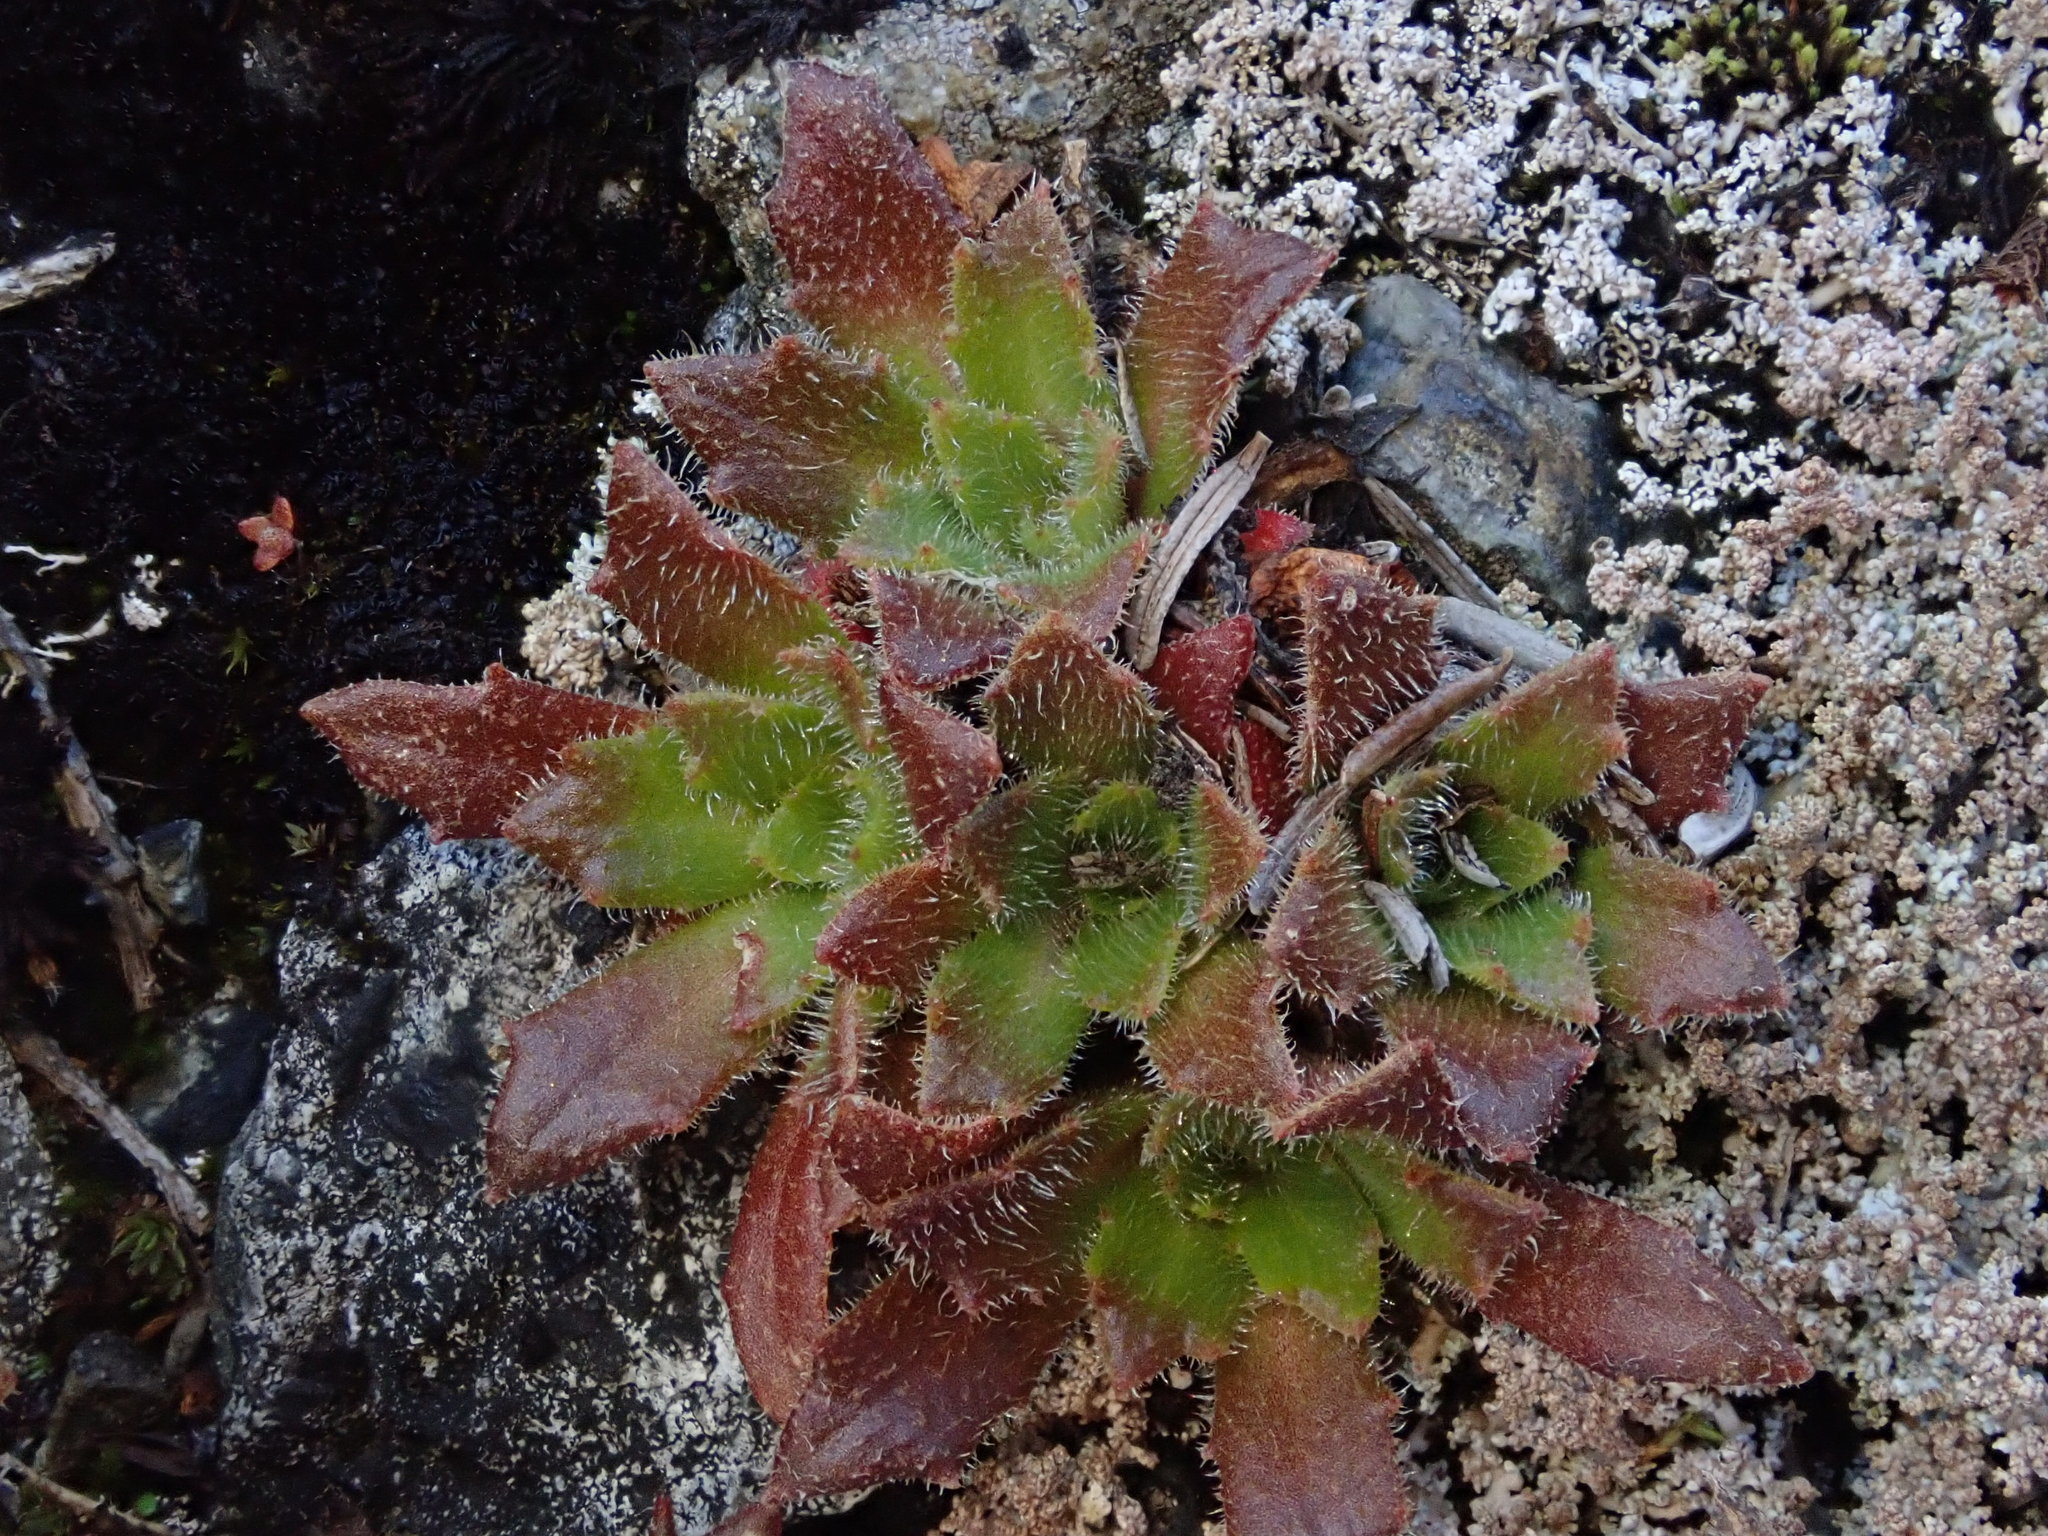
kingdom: Plantae
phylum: Tracheophyta
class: Magnoliopsida
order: Saxifragales
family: Saxifragaceae
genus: Micranthes
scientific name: Micranthes ferruginea
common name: Rusty saxifrage
